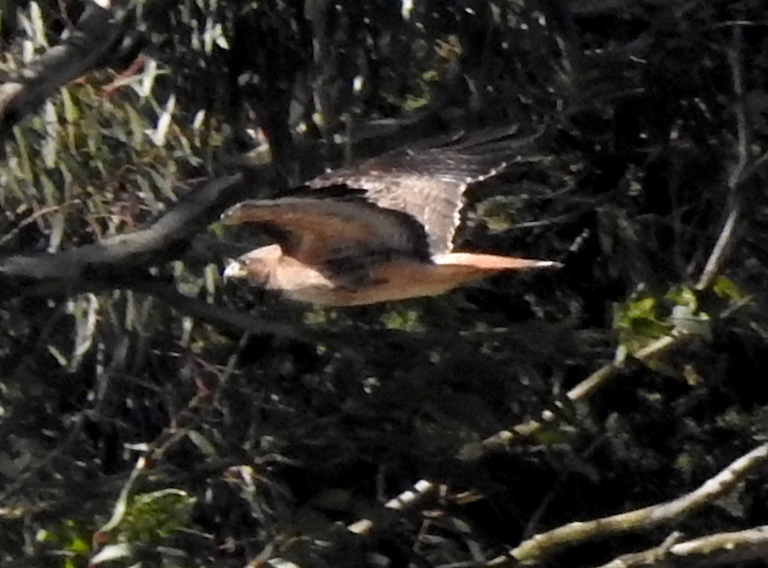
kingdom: Animalia
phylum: Chordata
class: Aves
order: Accipitriformes
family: Accipitridae
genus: Buteo
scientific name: Buteo jamaicensis
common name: Red-tailed hawk
